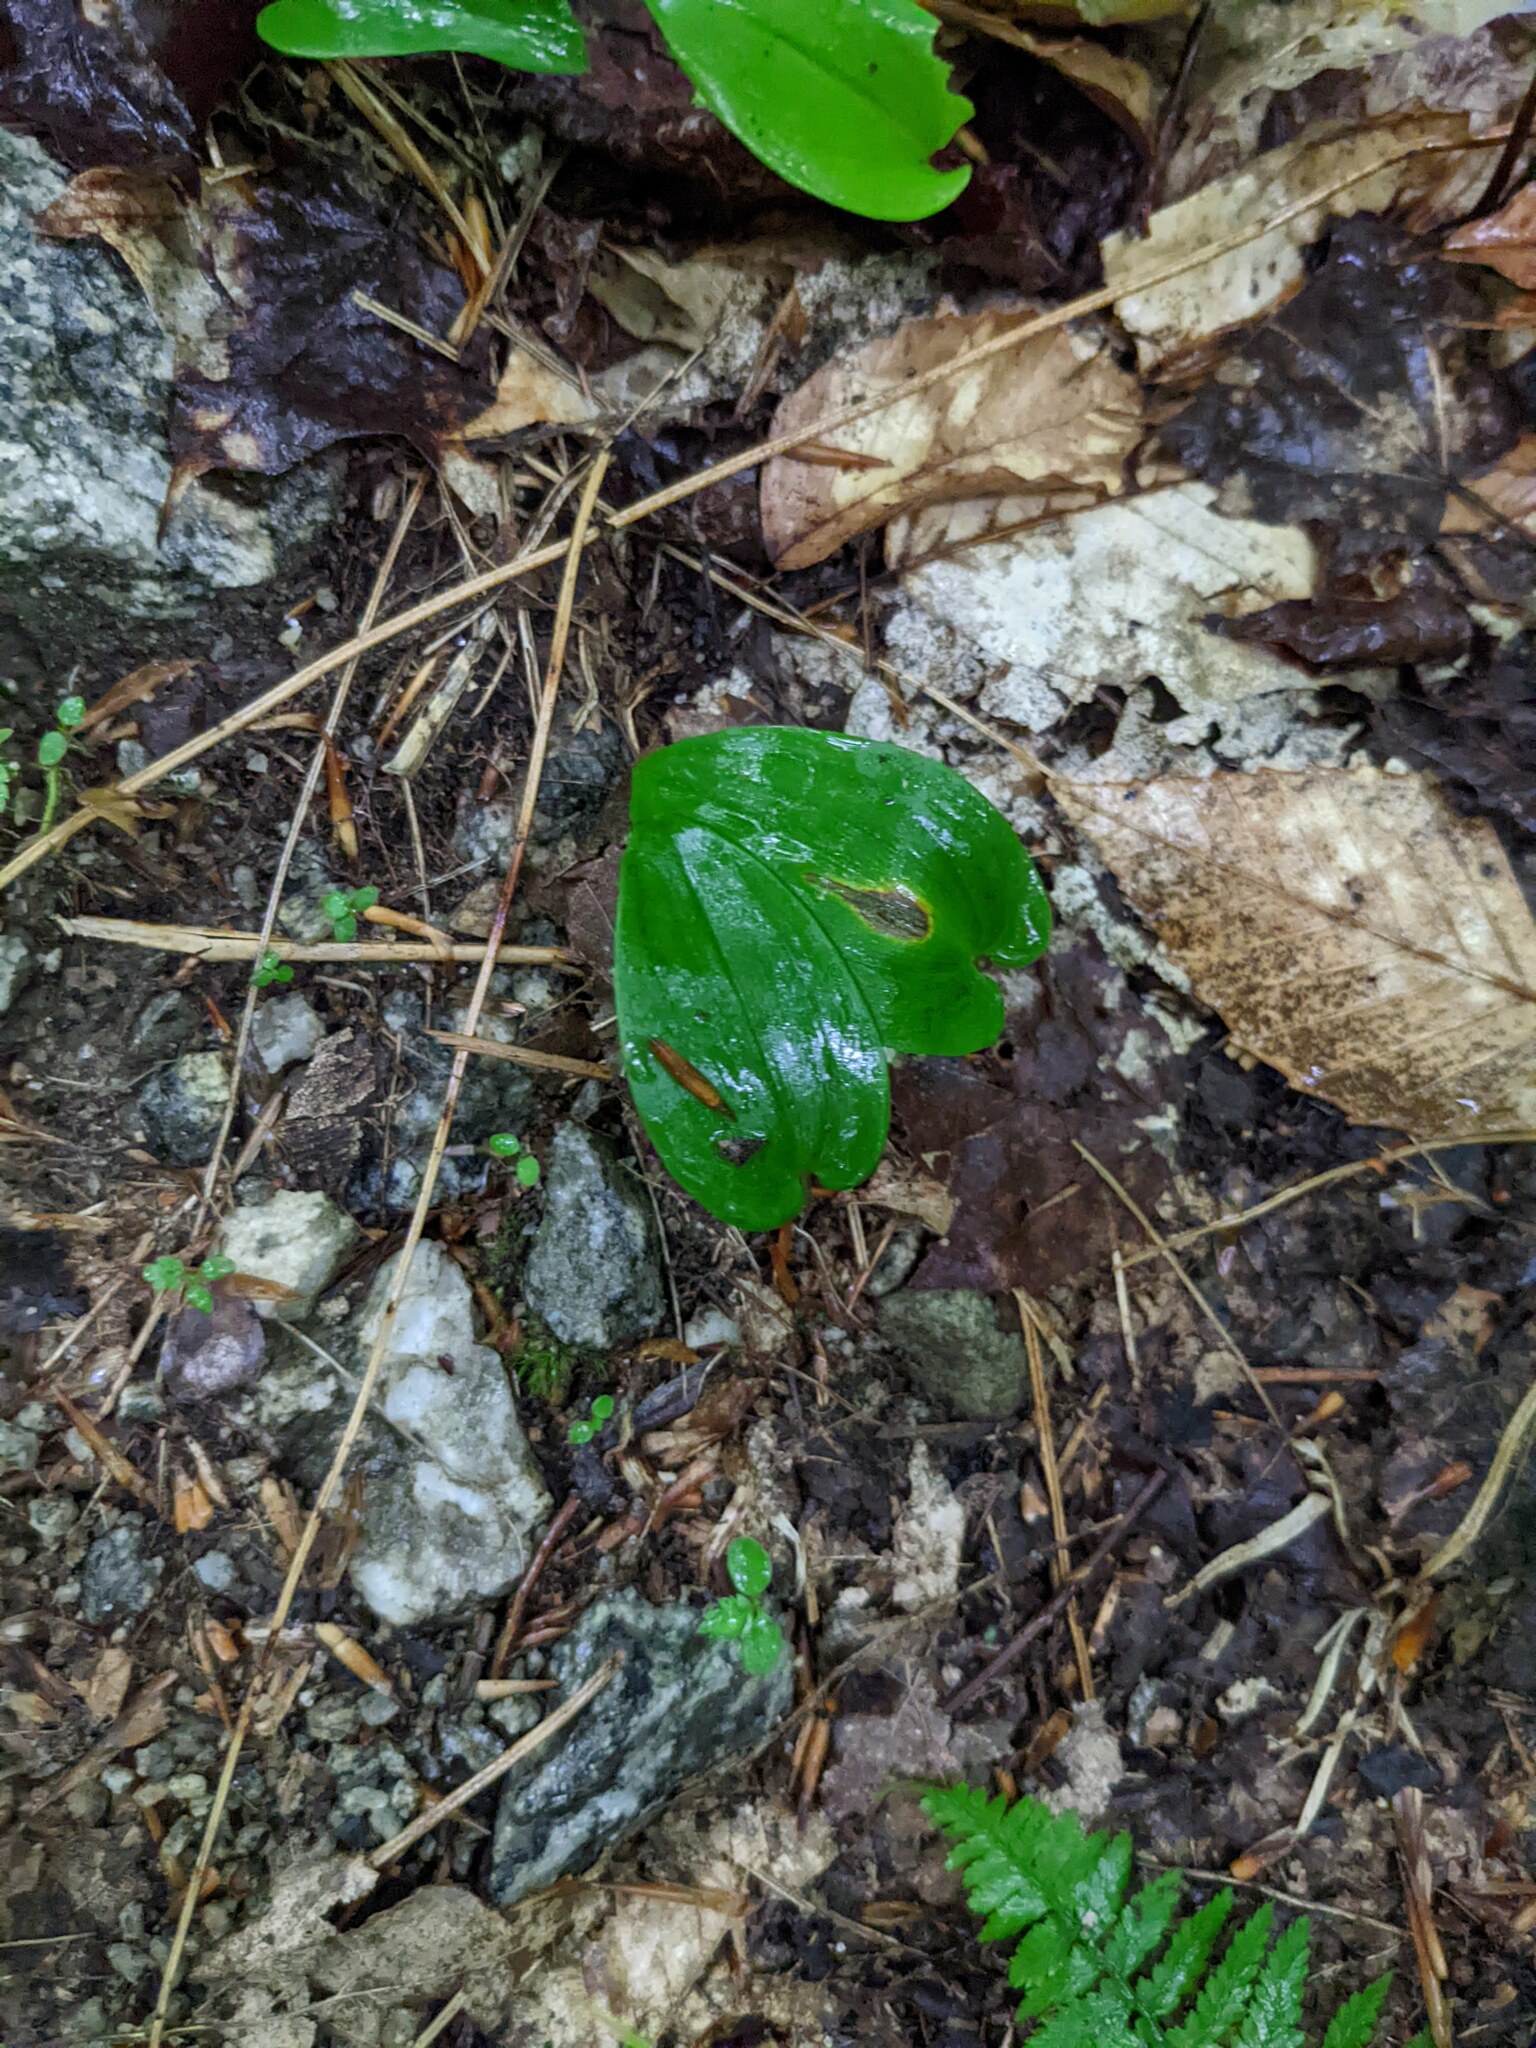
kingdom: Plantae
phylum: Tracheophyta
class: Liliopsida
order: Asparagales
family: Asparagaceae
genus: Maianthemum
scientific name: Maianthemum canadense
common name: False lily-of-the-valley
